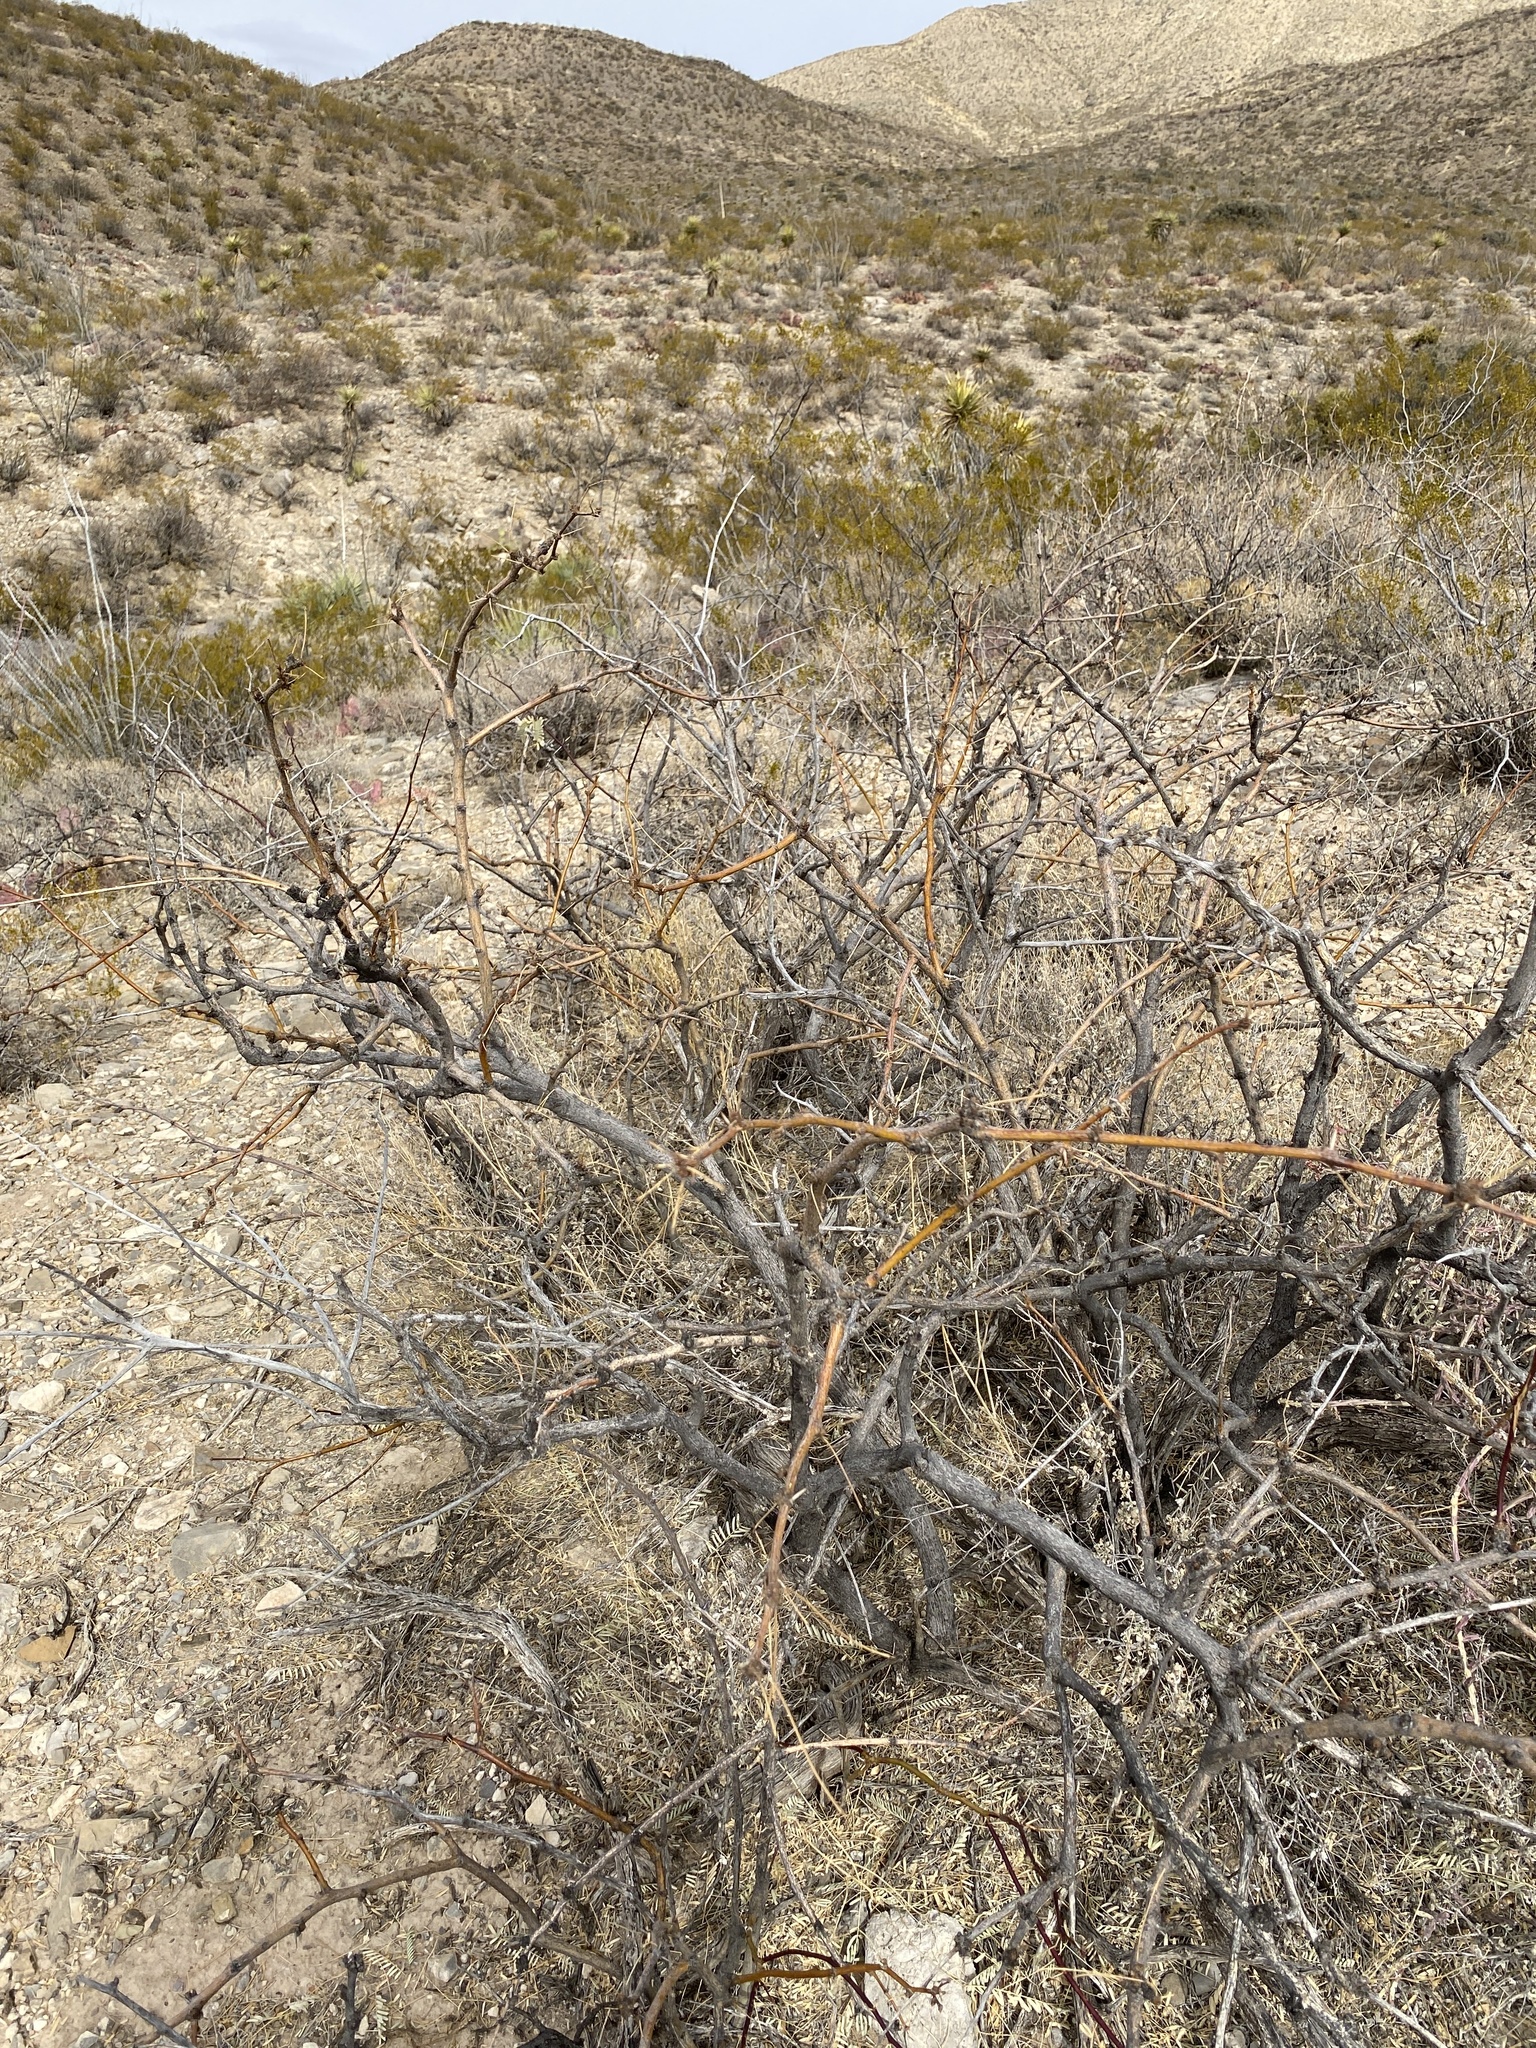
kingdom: Plantae
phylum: Tracheophyta
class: Magnoliopsida
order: Fabales
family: Fabaceae
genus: Prosopis
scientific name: Prosopis glandulosa
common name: Honey mesquite
